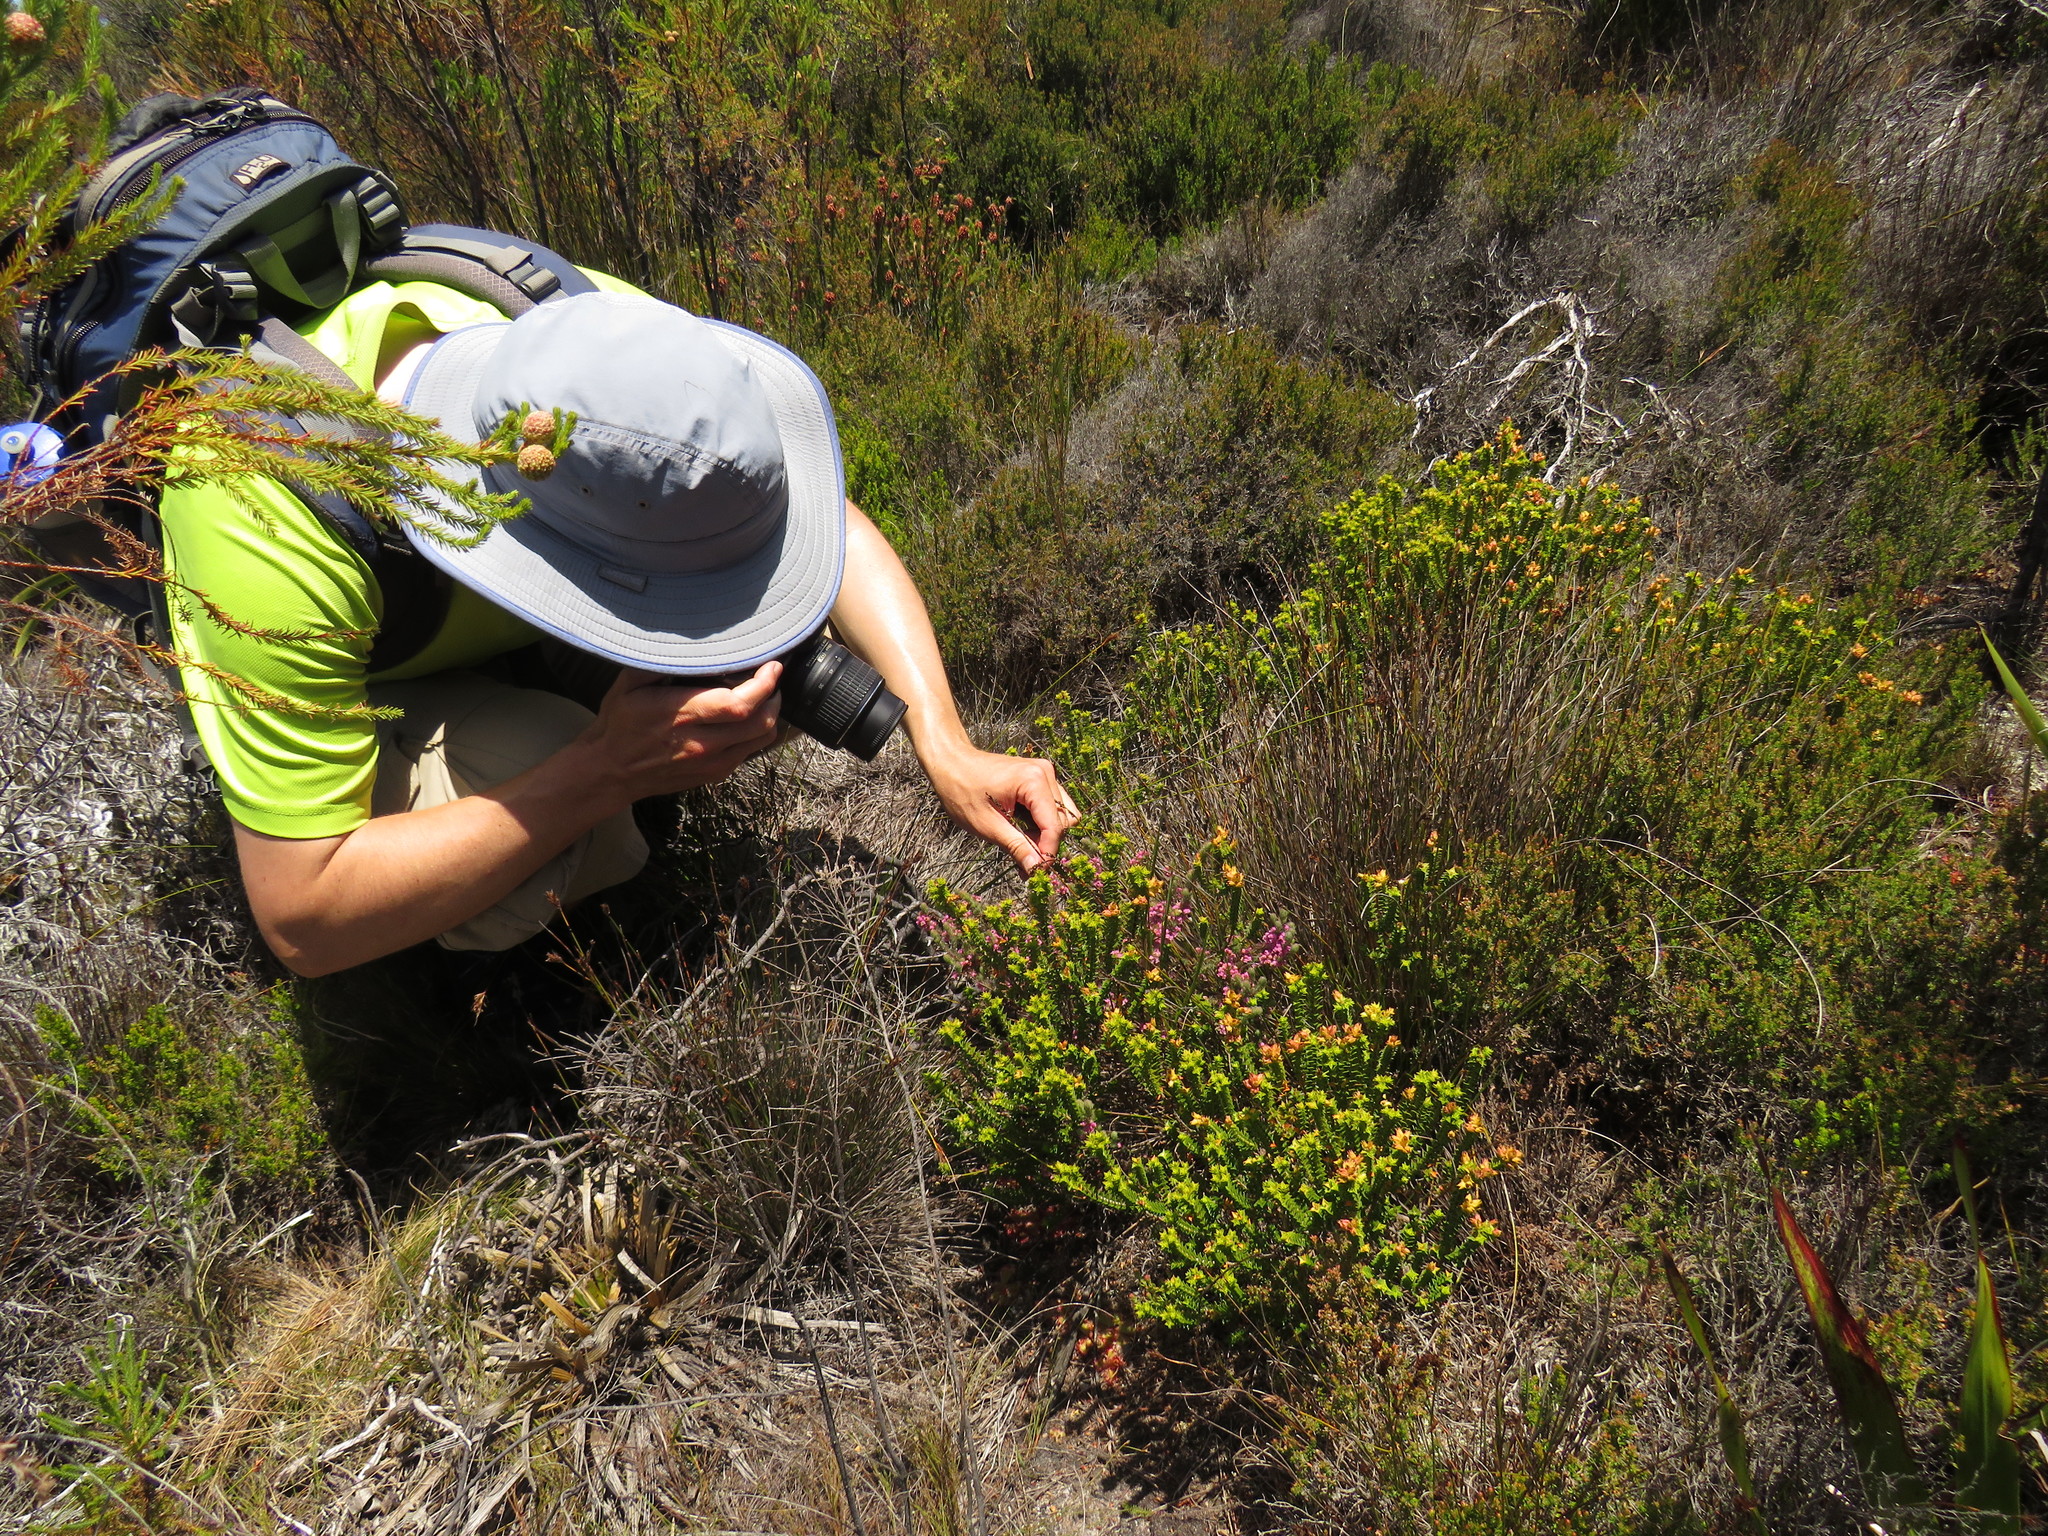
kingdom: Plantae
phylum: Tracheophyta
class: Magnoliopsida
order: Ericales
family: Ericaceae
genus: Erica
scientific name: Erica mollis
